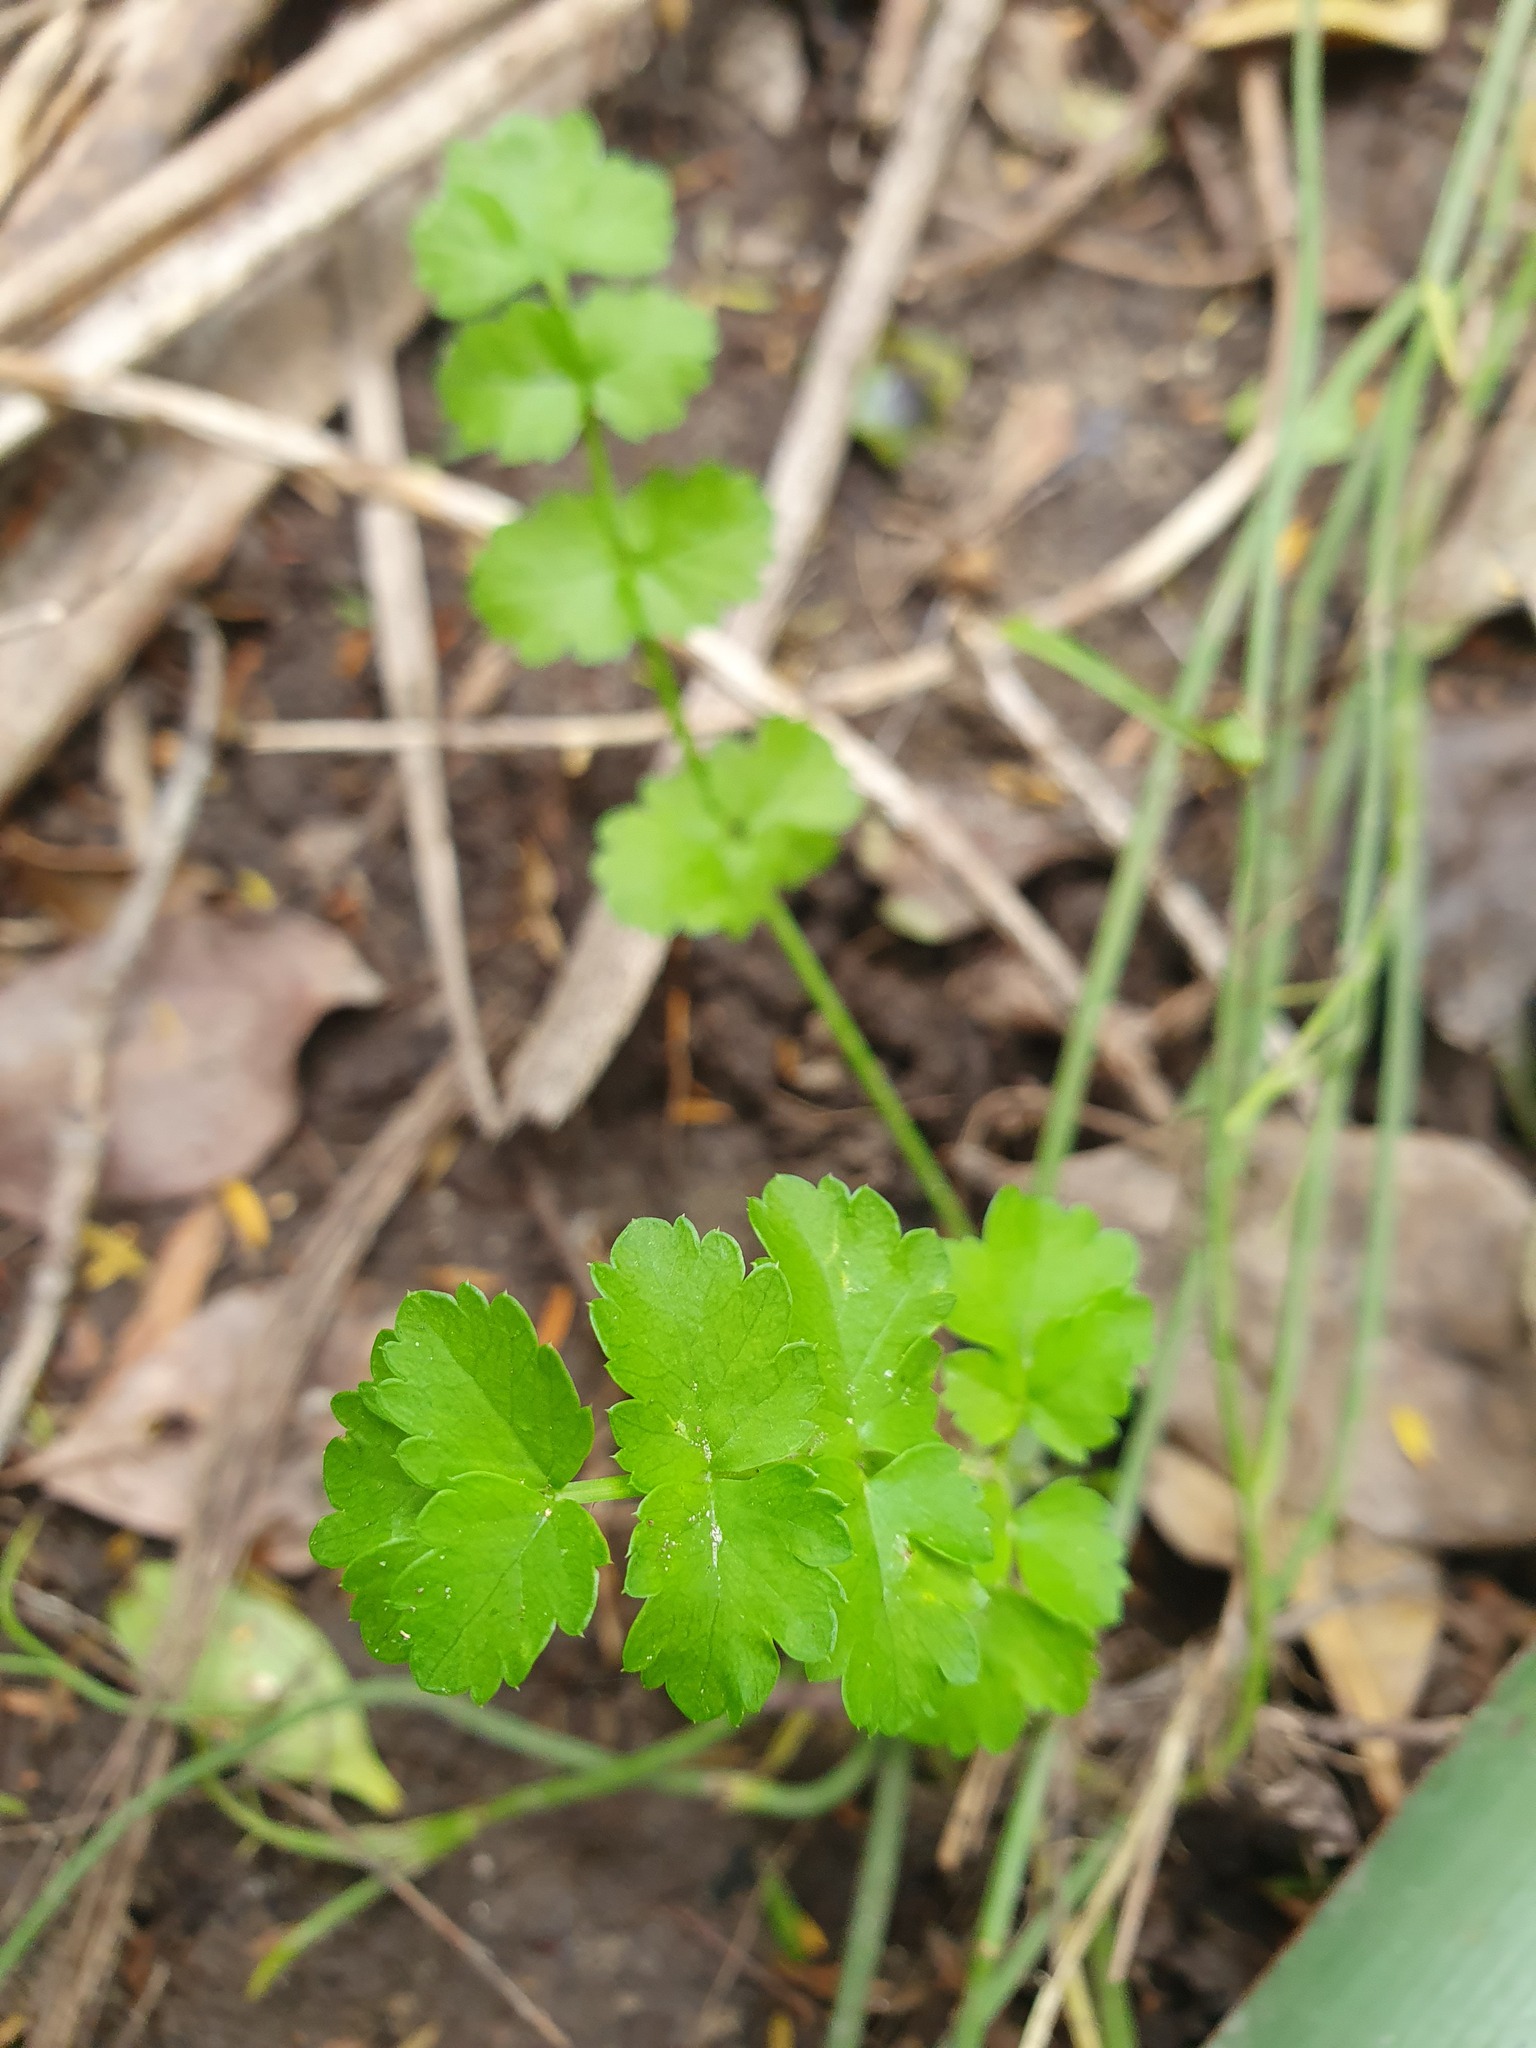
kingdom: Plantae
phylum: Tracheophyta
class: Magnoliopsida
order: Apiales
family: Apiaceae
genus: Helosciadium
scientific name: Helosciadium nodiflorum
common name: Fool's-watercress
